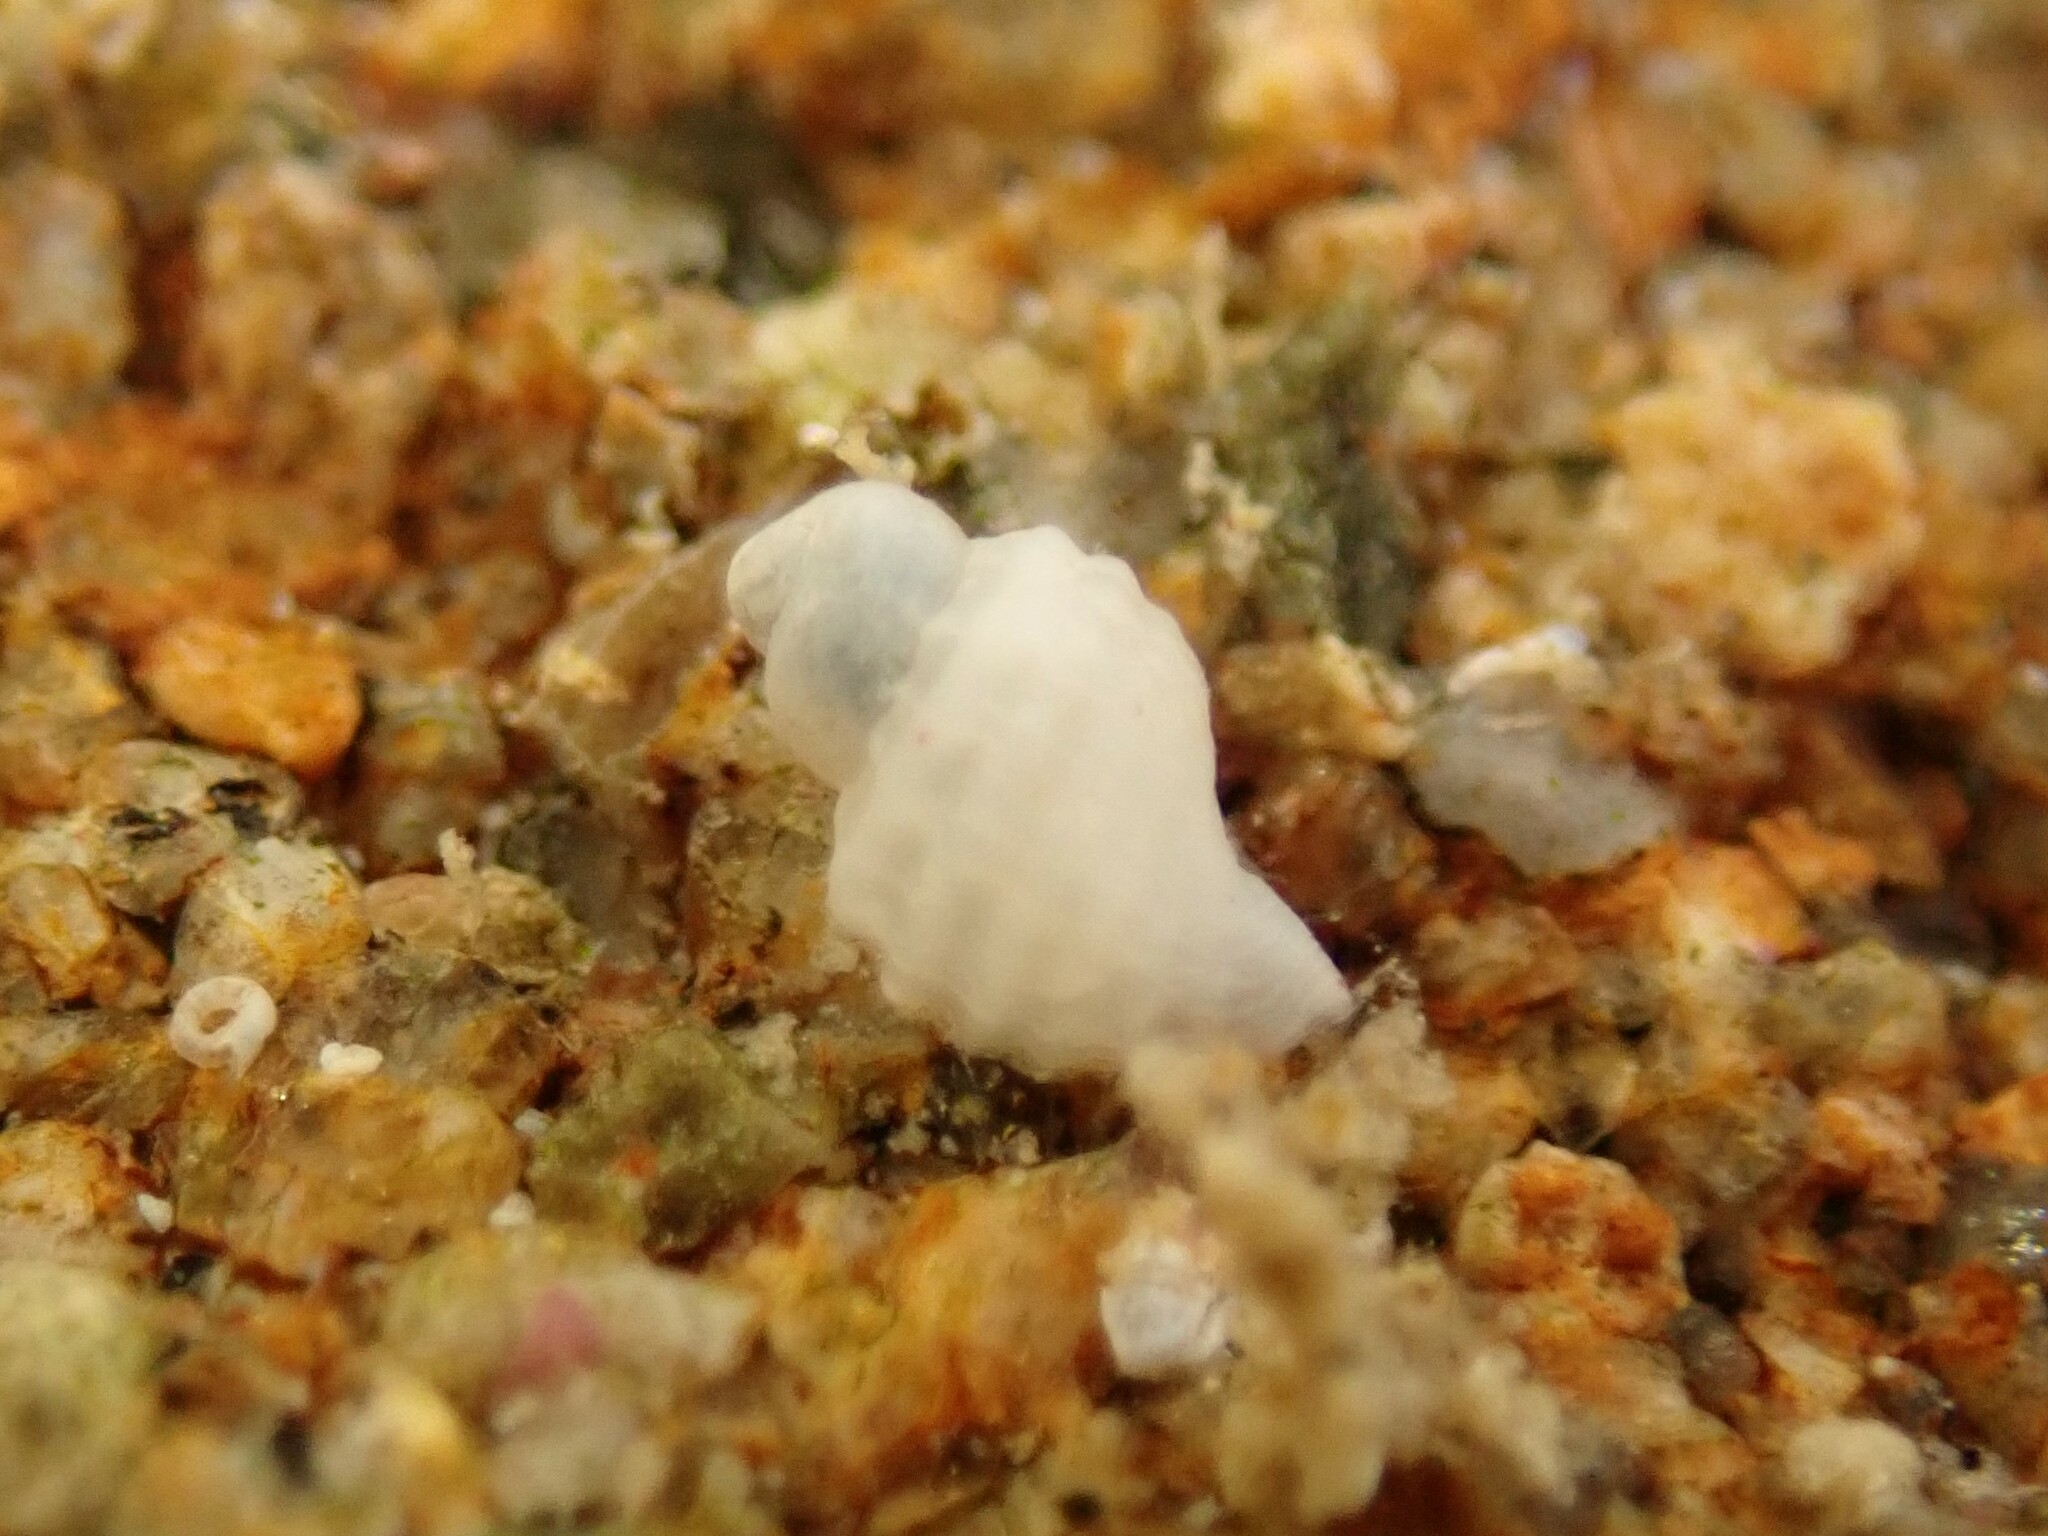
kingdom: Animalia
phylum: Mollusca
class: Gastropoda
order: Neogastropoda
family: Muricidae
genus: Haustrum
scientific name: Haustrum lacunosum
